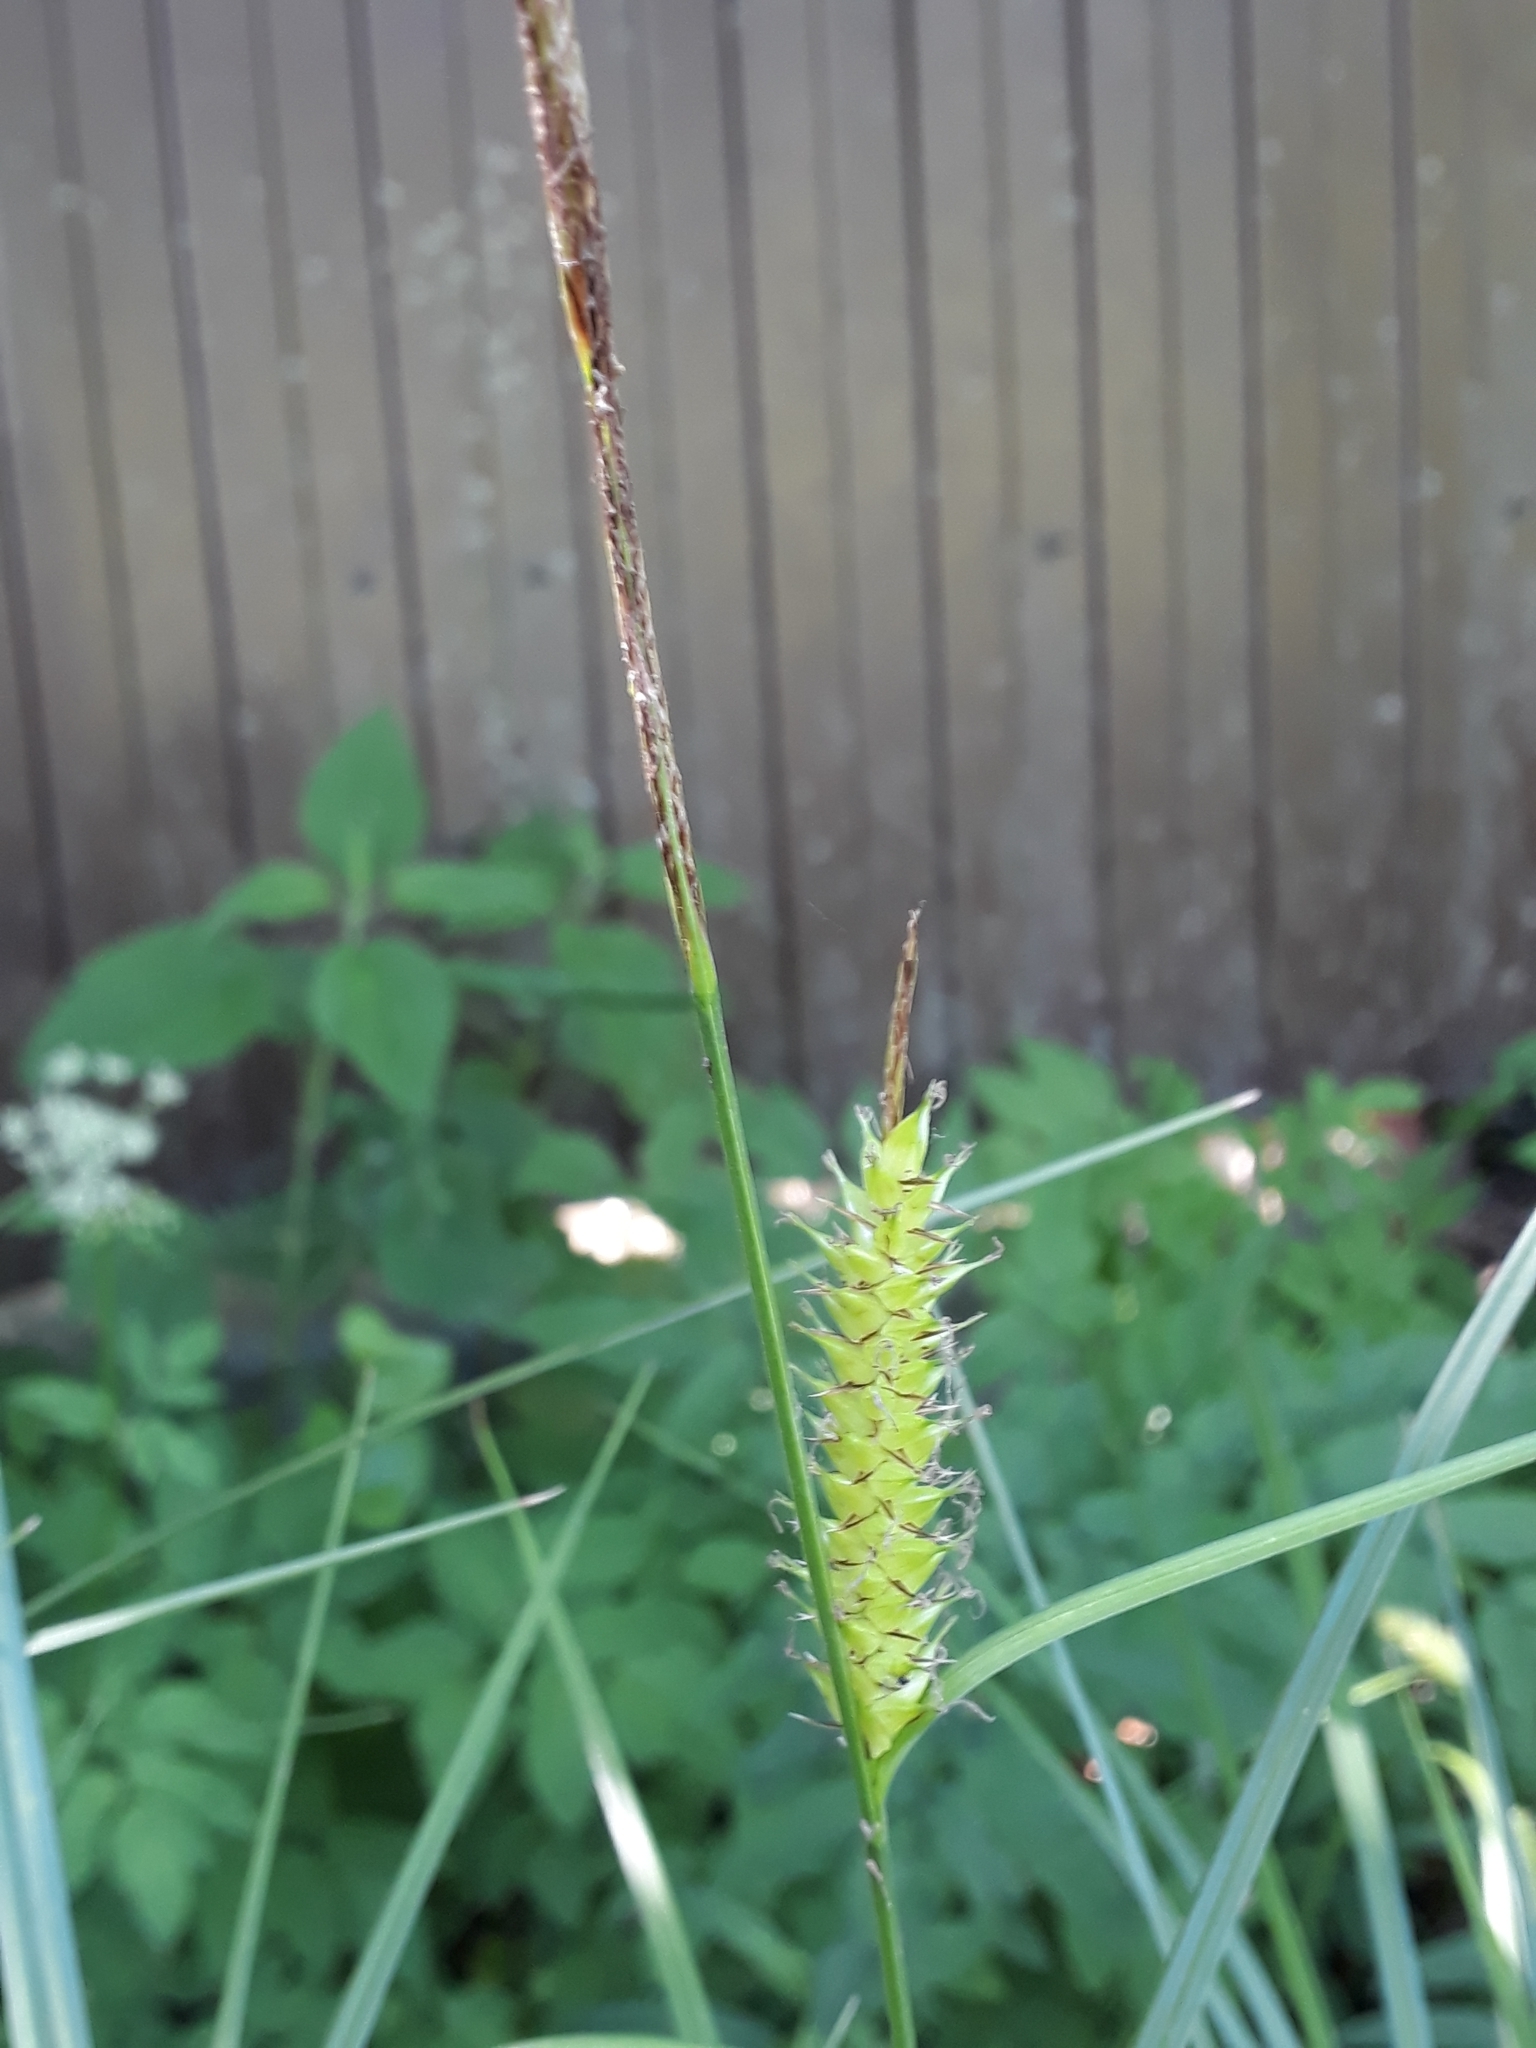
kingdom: Plantae
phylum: Tracheophyta
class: Liliopsida
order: Poales
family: Cyperaceae
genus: Carex
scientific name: Carex vesicaria
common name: Bladder-sedge
